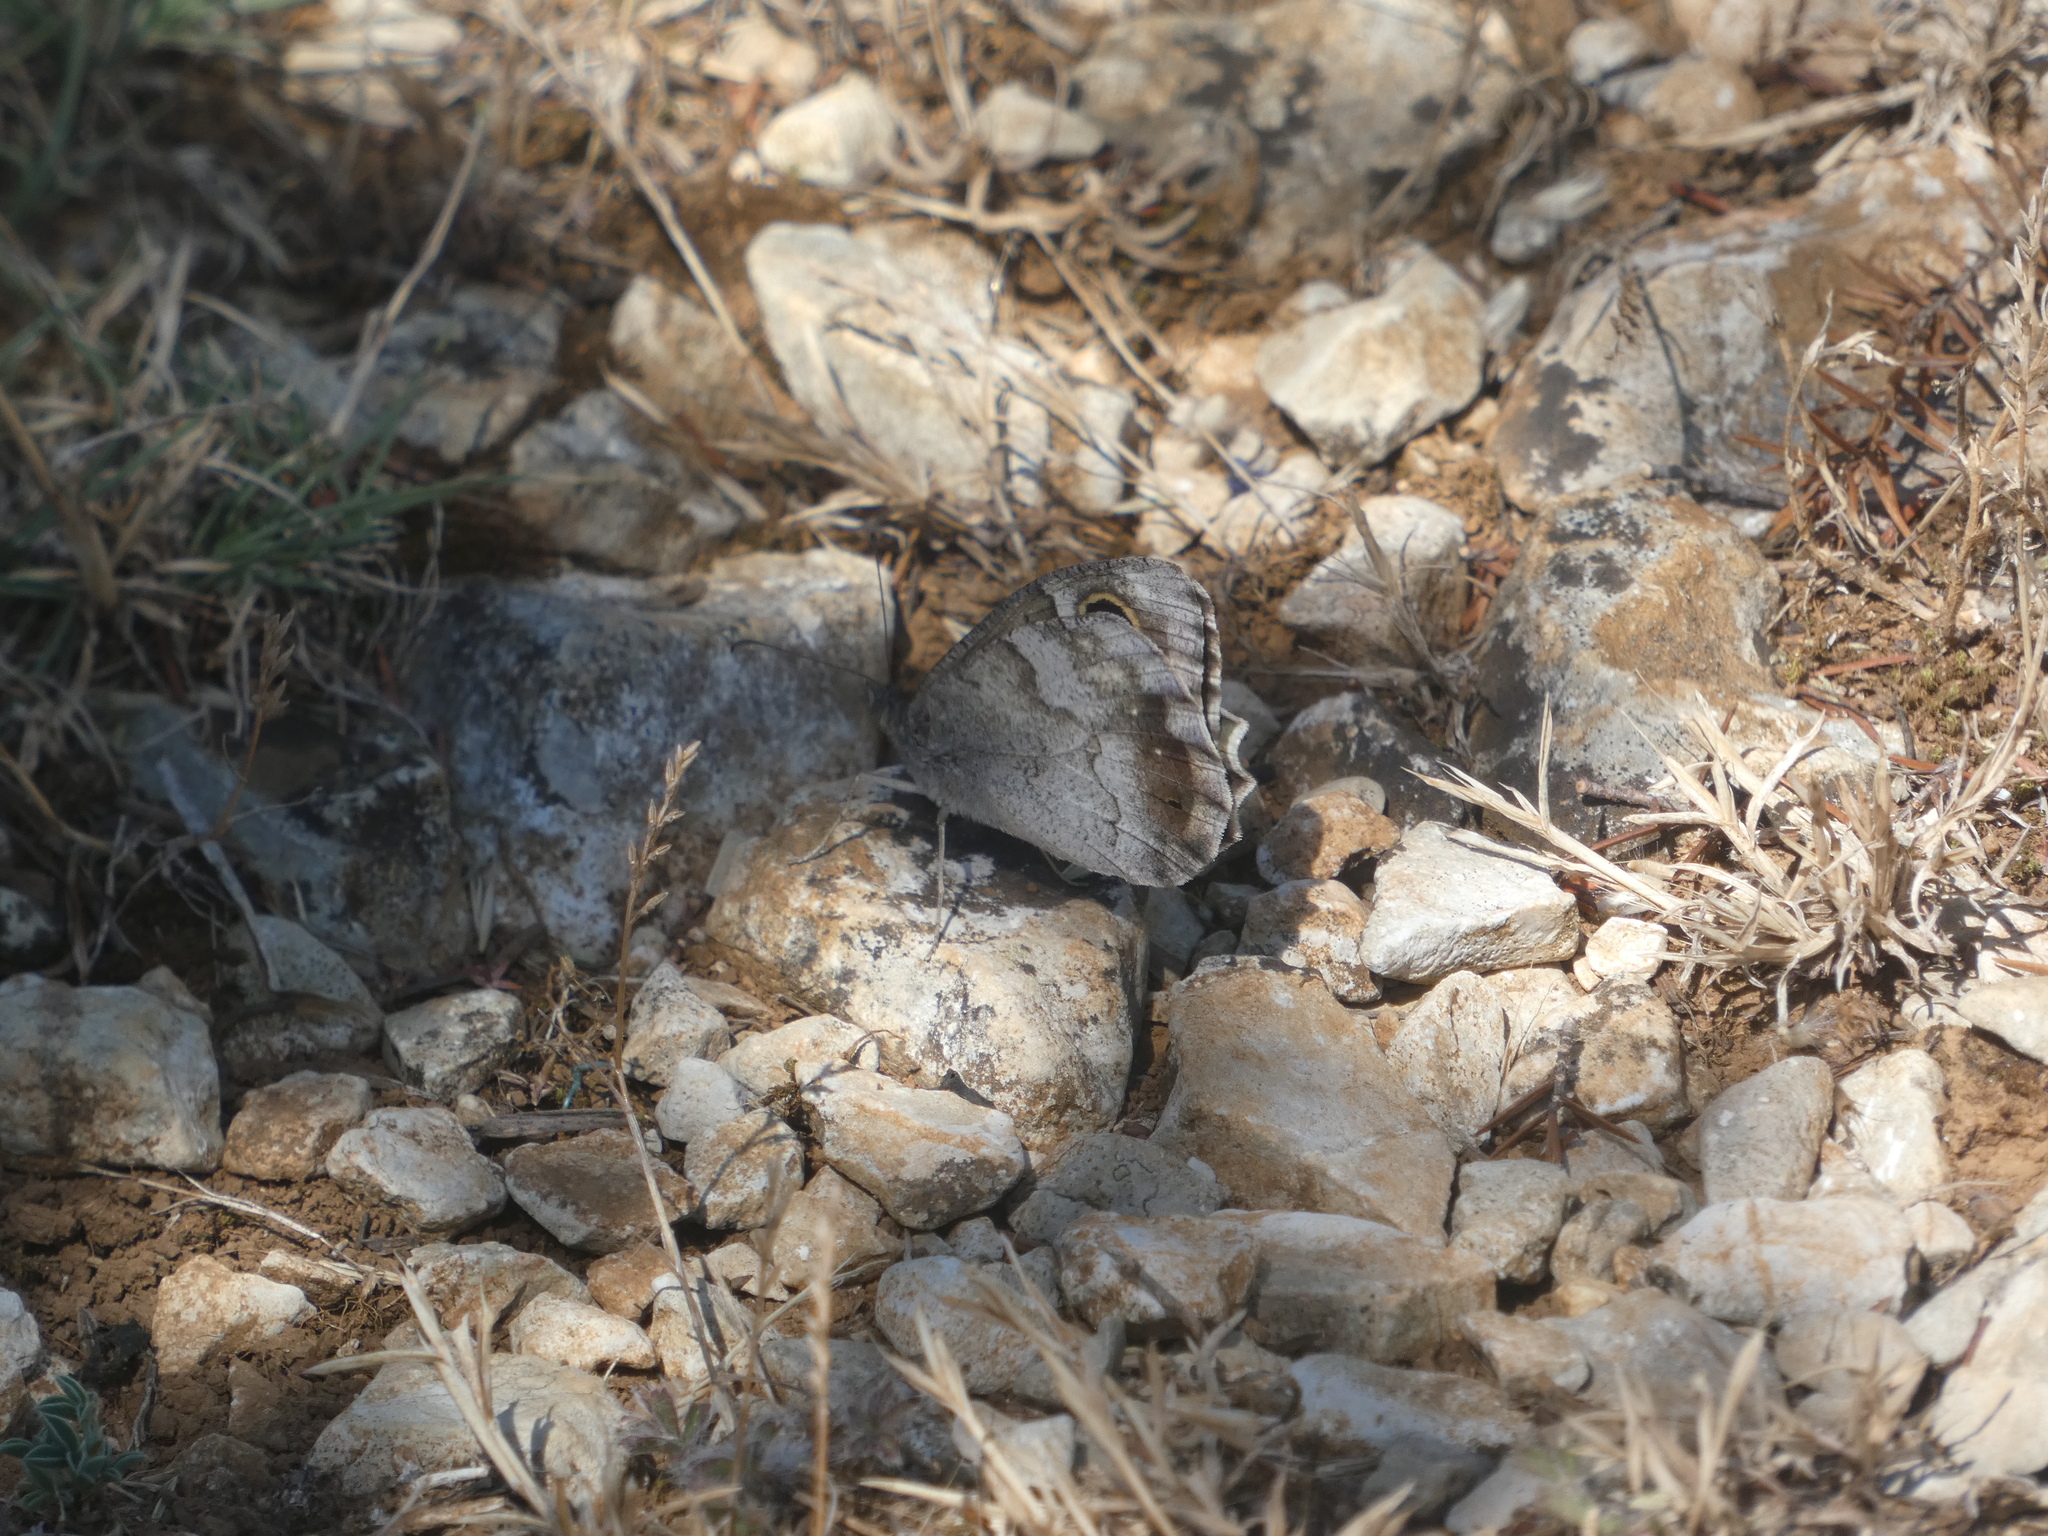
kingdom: Animalia
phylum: Arthropoda
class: Insecta
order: Lepidoptera
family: Nymphalidae
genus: Hipparchia
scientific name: Hipparchia statilinus
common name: Tree grayling
